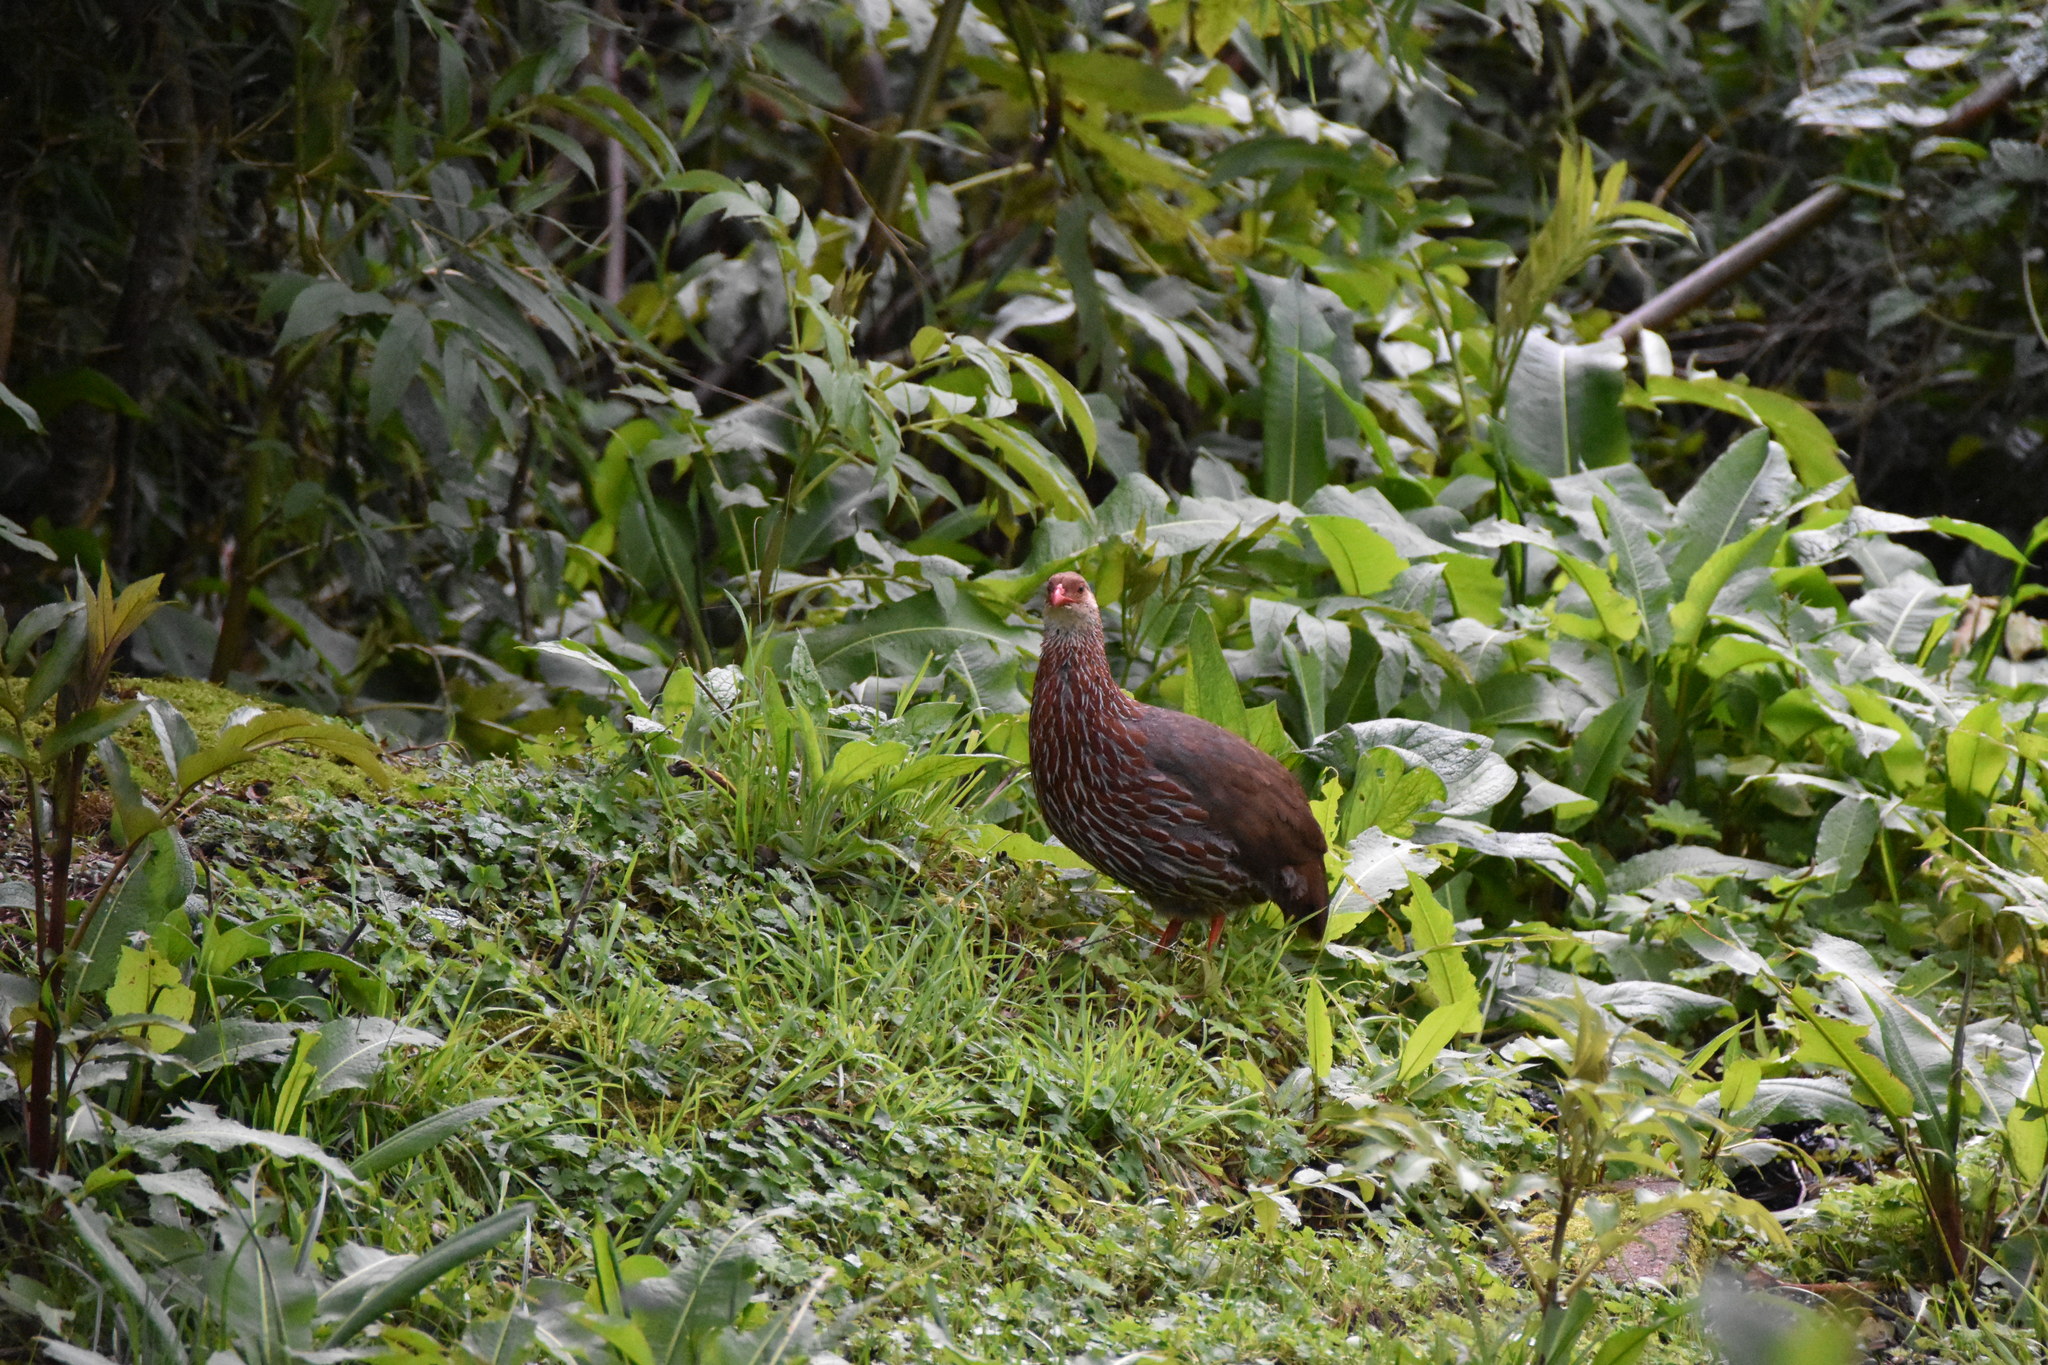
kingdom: Animalia
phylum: Chordata
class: Aves
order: Galliformes
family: Phasianidae
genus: Pternistis
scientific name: Pternistis jacksoni
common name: Jackson's francolin
